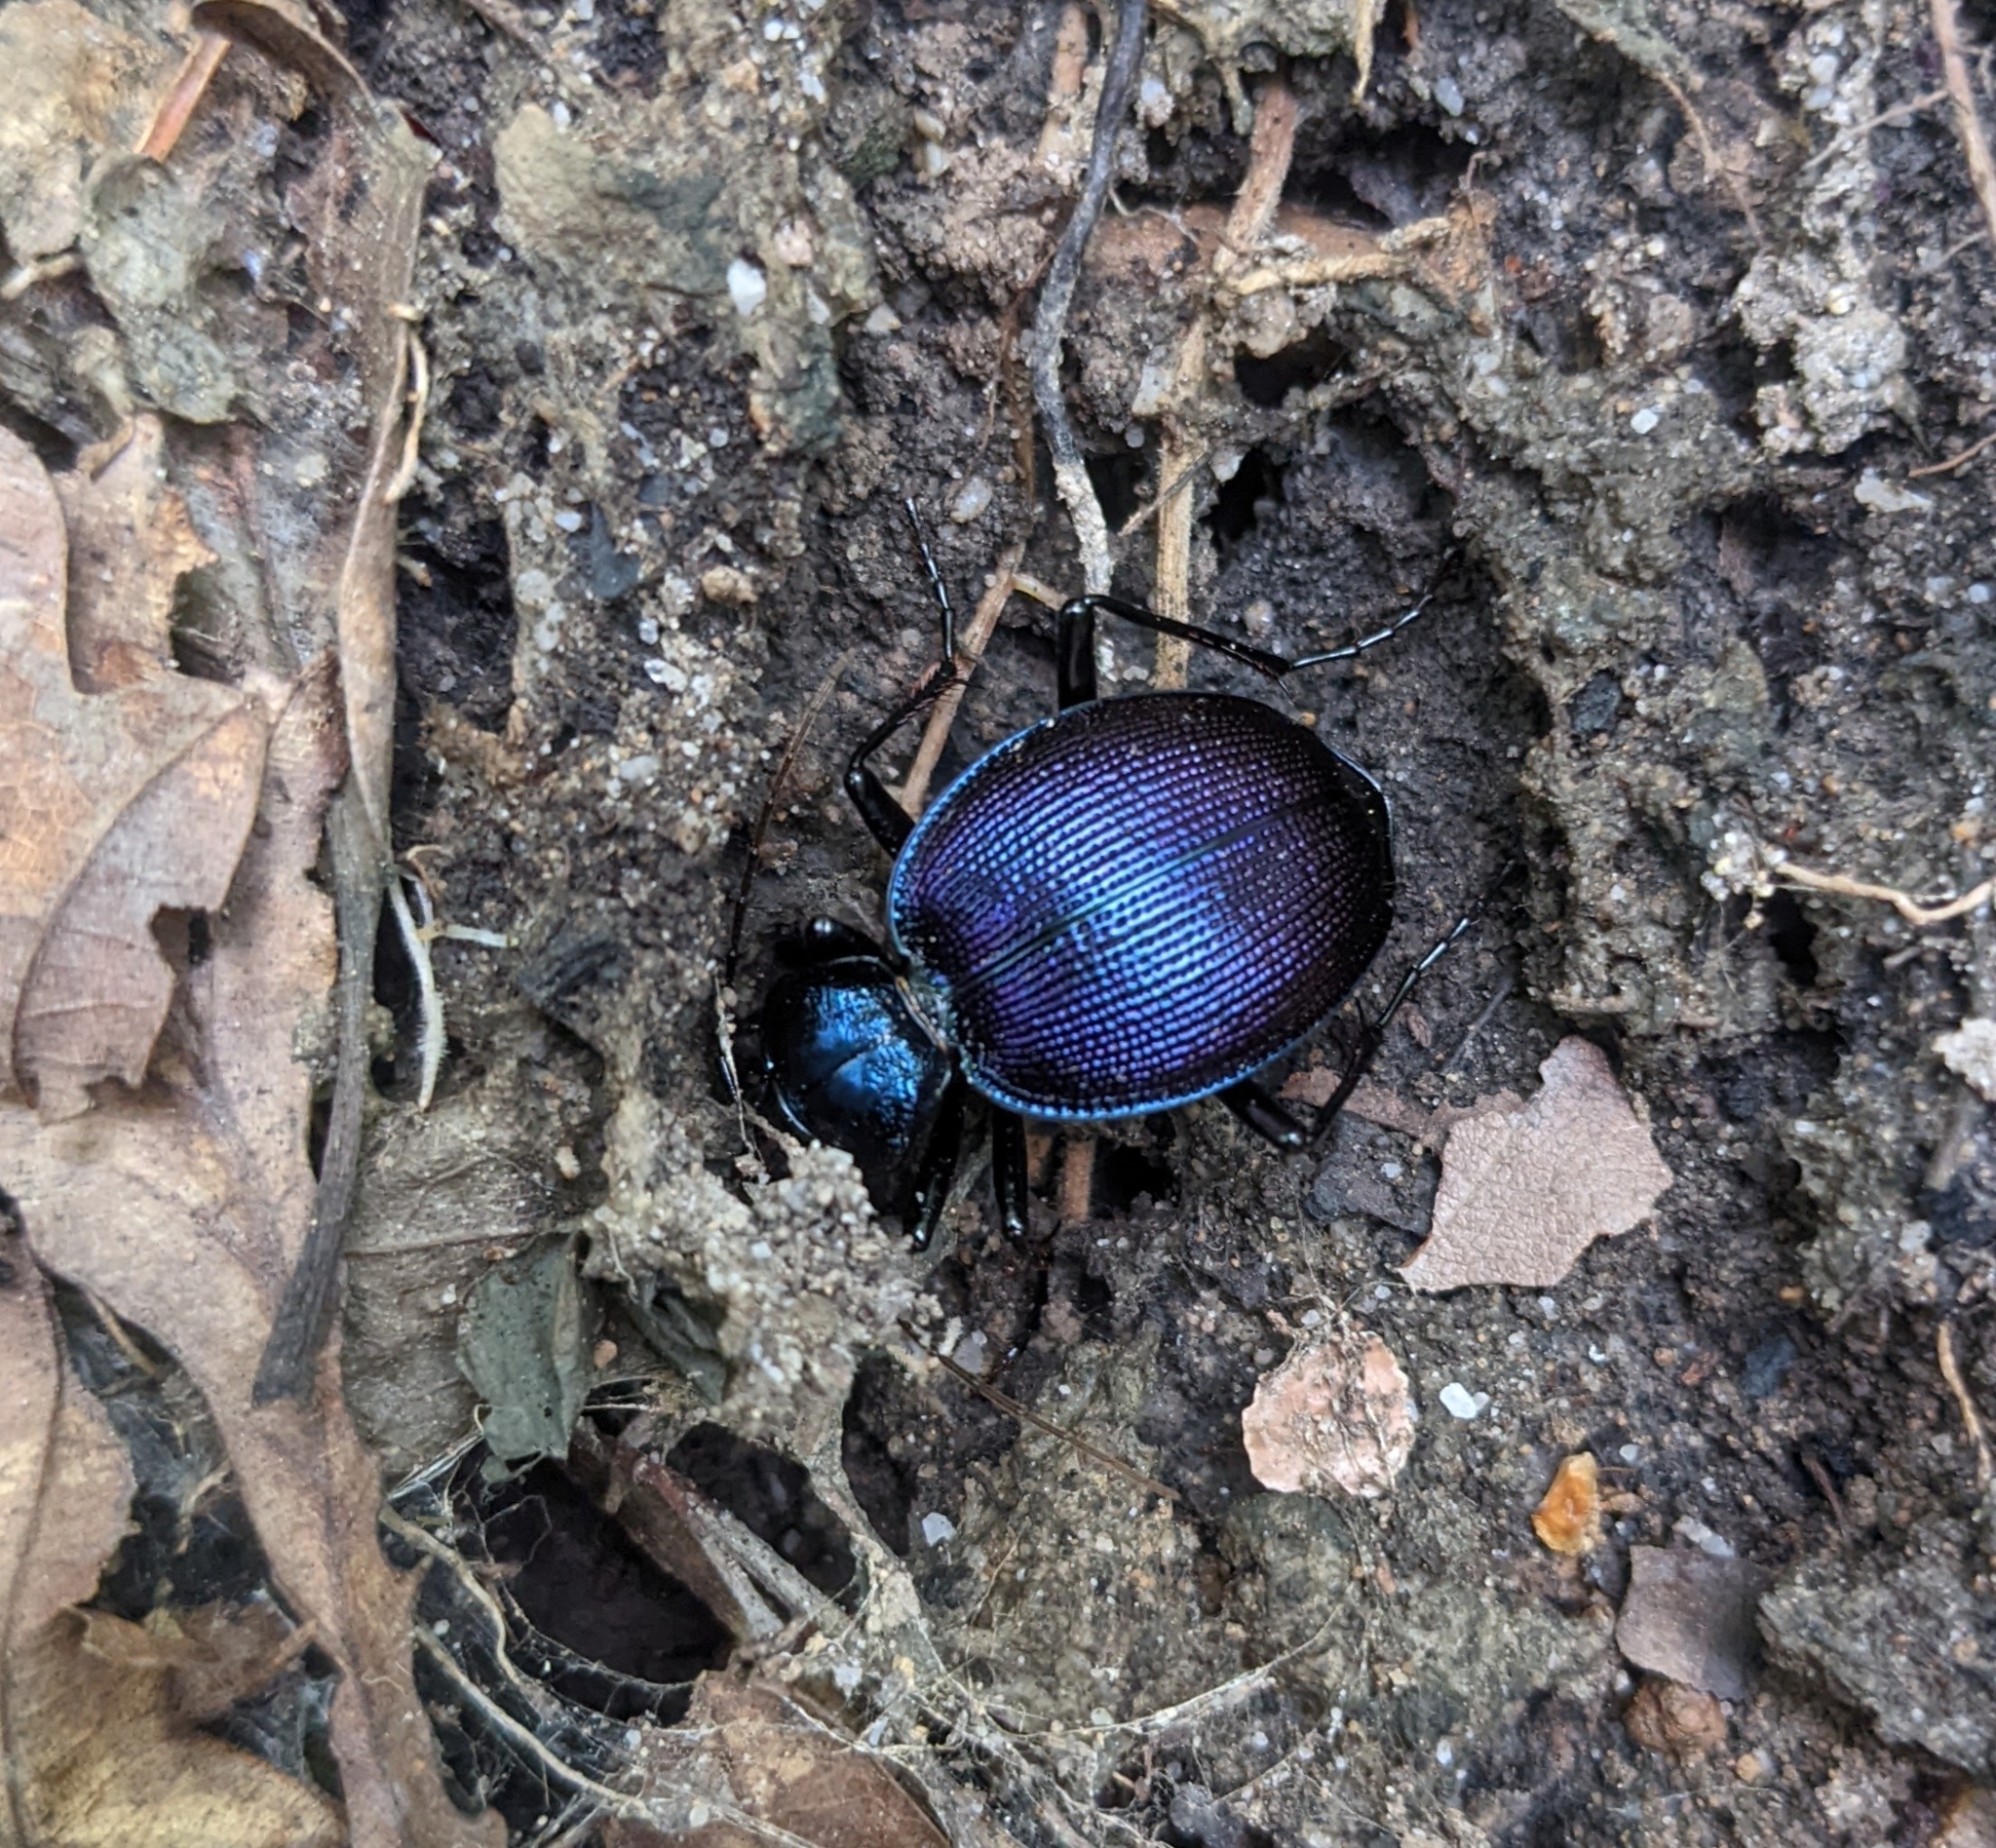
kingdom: Animalia
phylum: Arthropoda
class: Insecta
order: Coleoptera
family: Carabidae
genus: Scaphinotus
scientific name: Scaphinotus viduus
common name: Bereft snail-eating beetle
